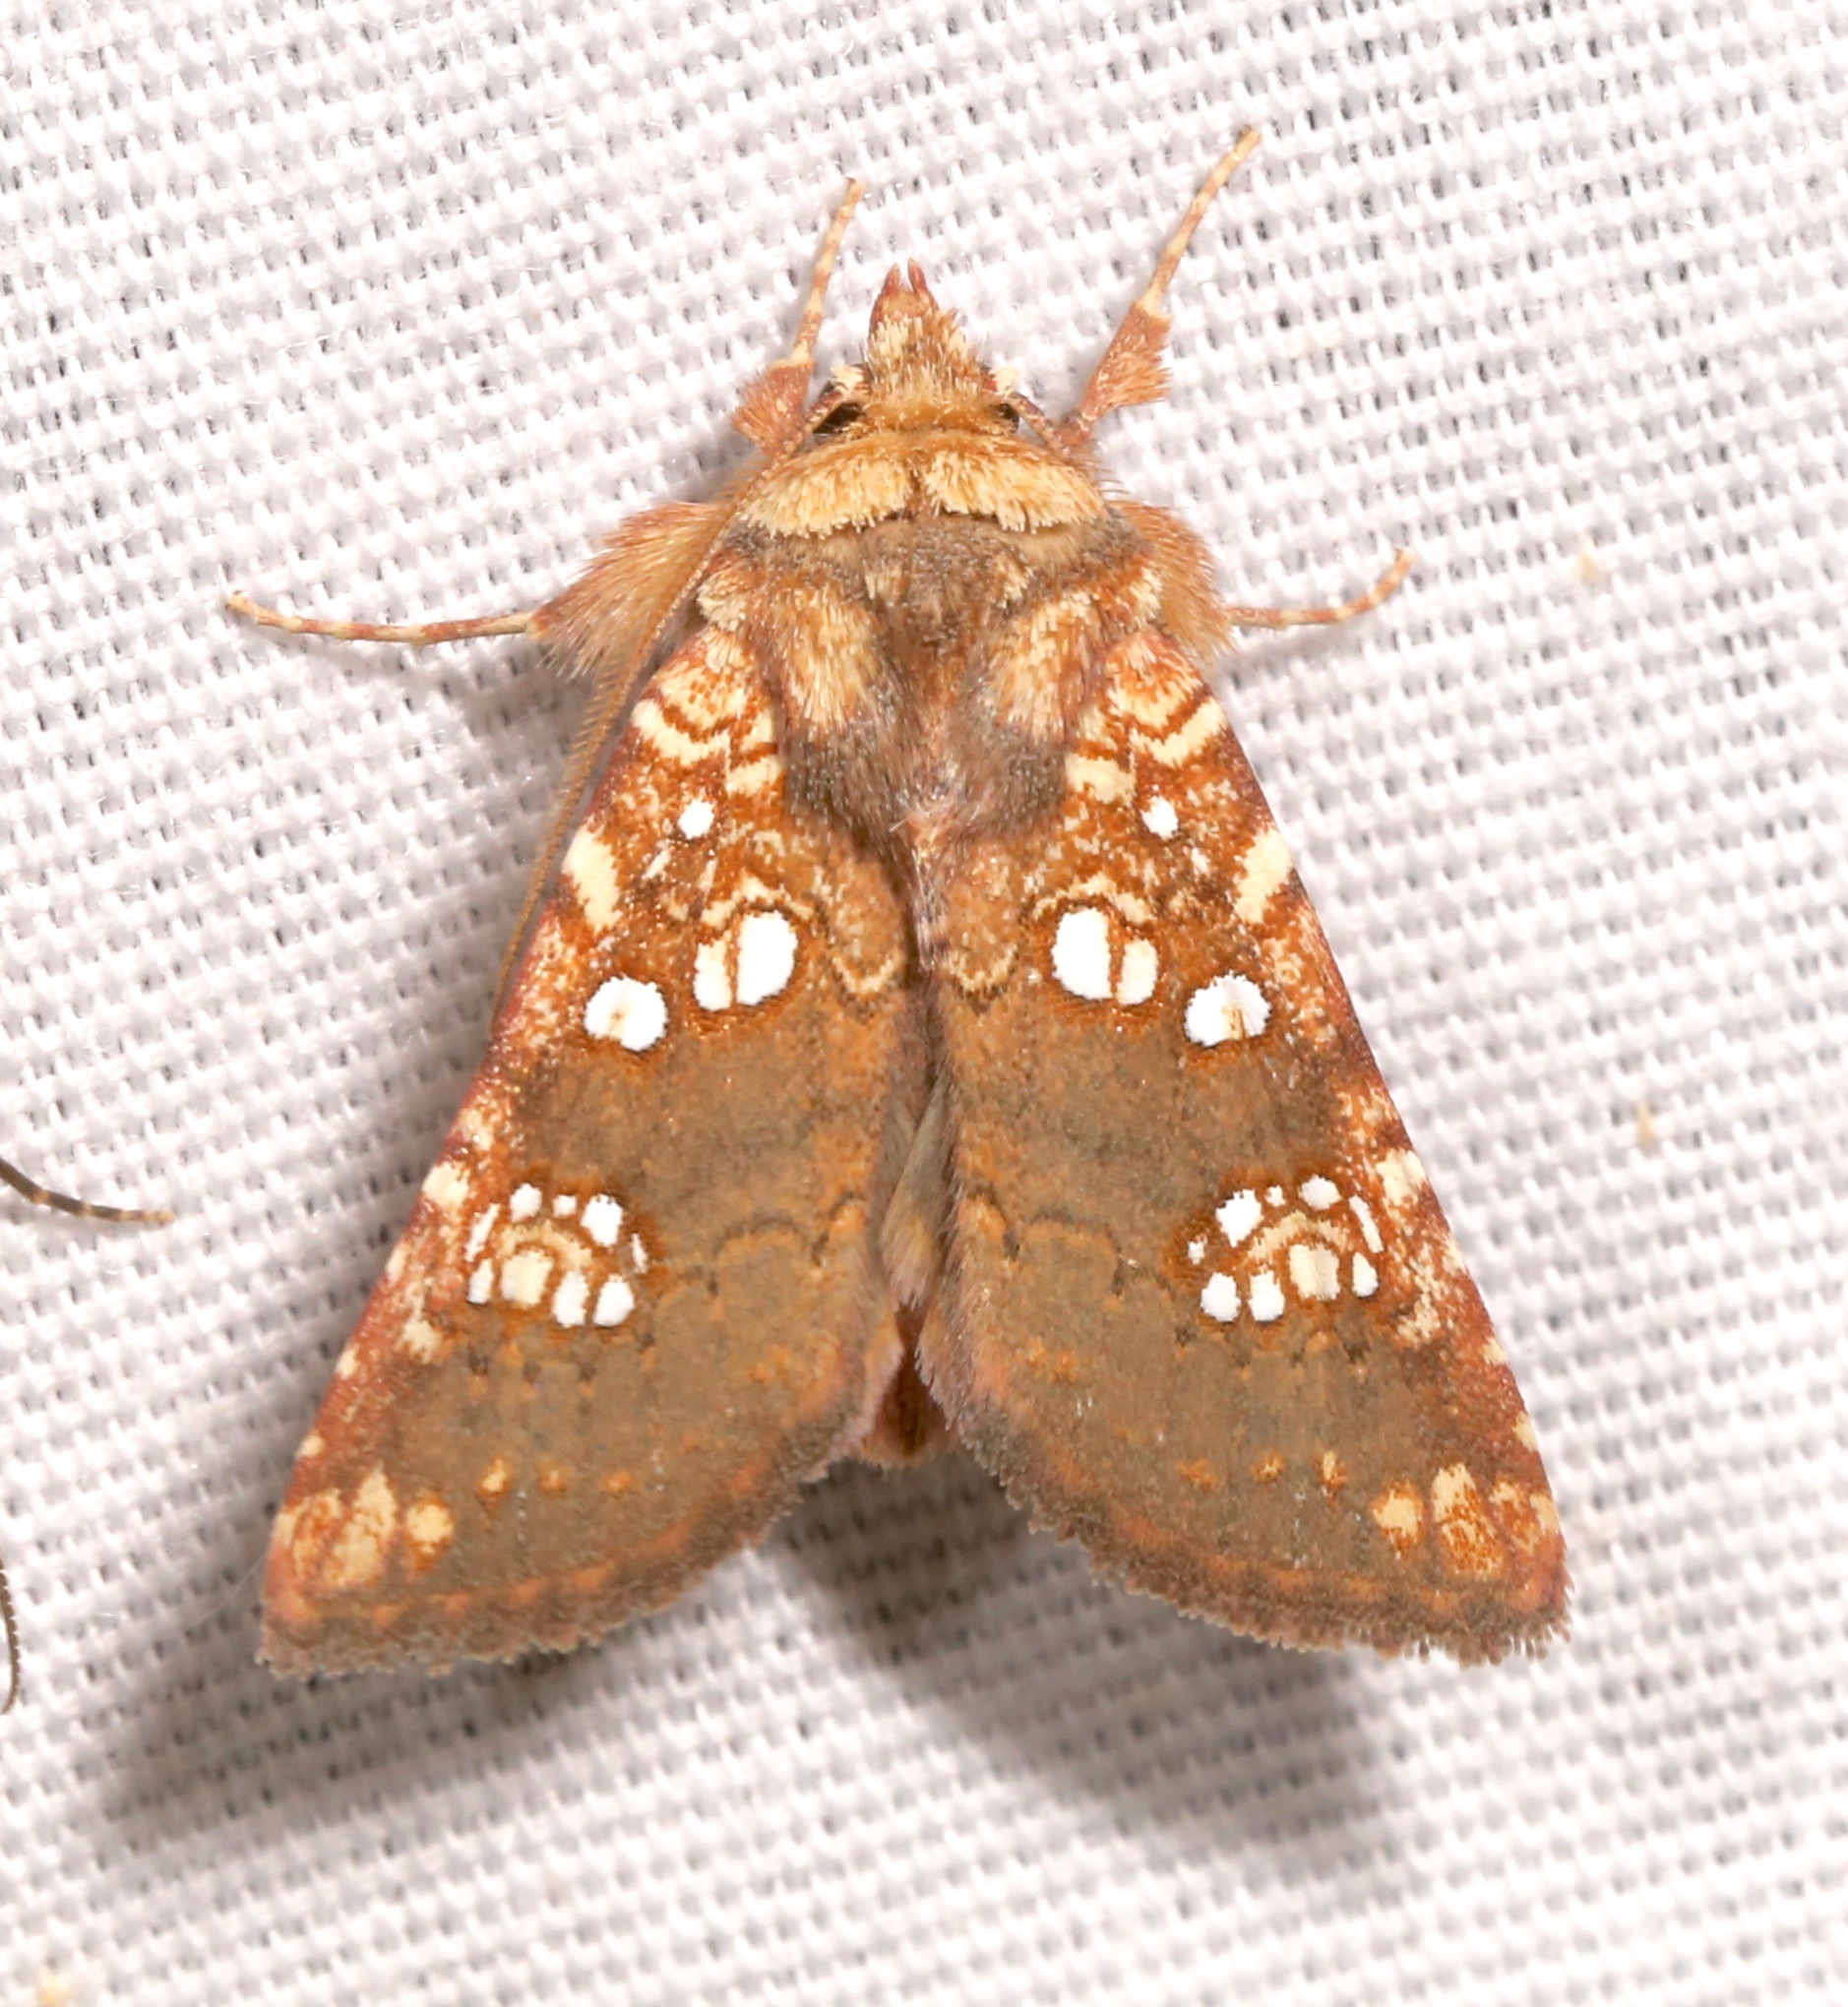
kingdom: Animalia
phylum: Arthropoda
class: Insecta
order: Lepidoptera
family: Noctuidae
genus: Hydroeciodes
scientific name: Hydroeciodes serrata
